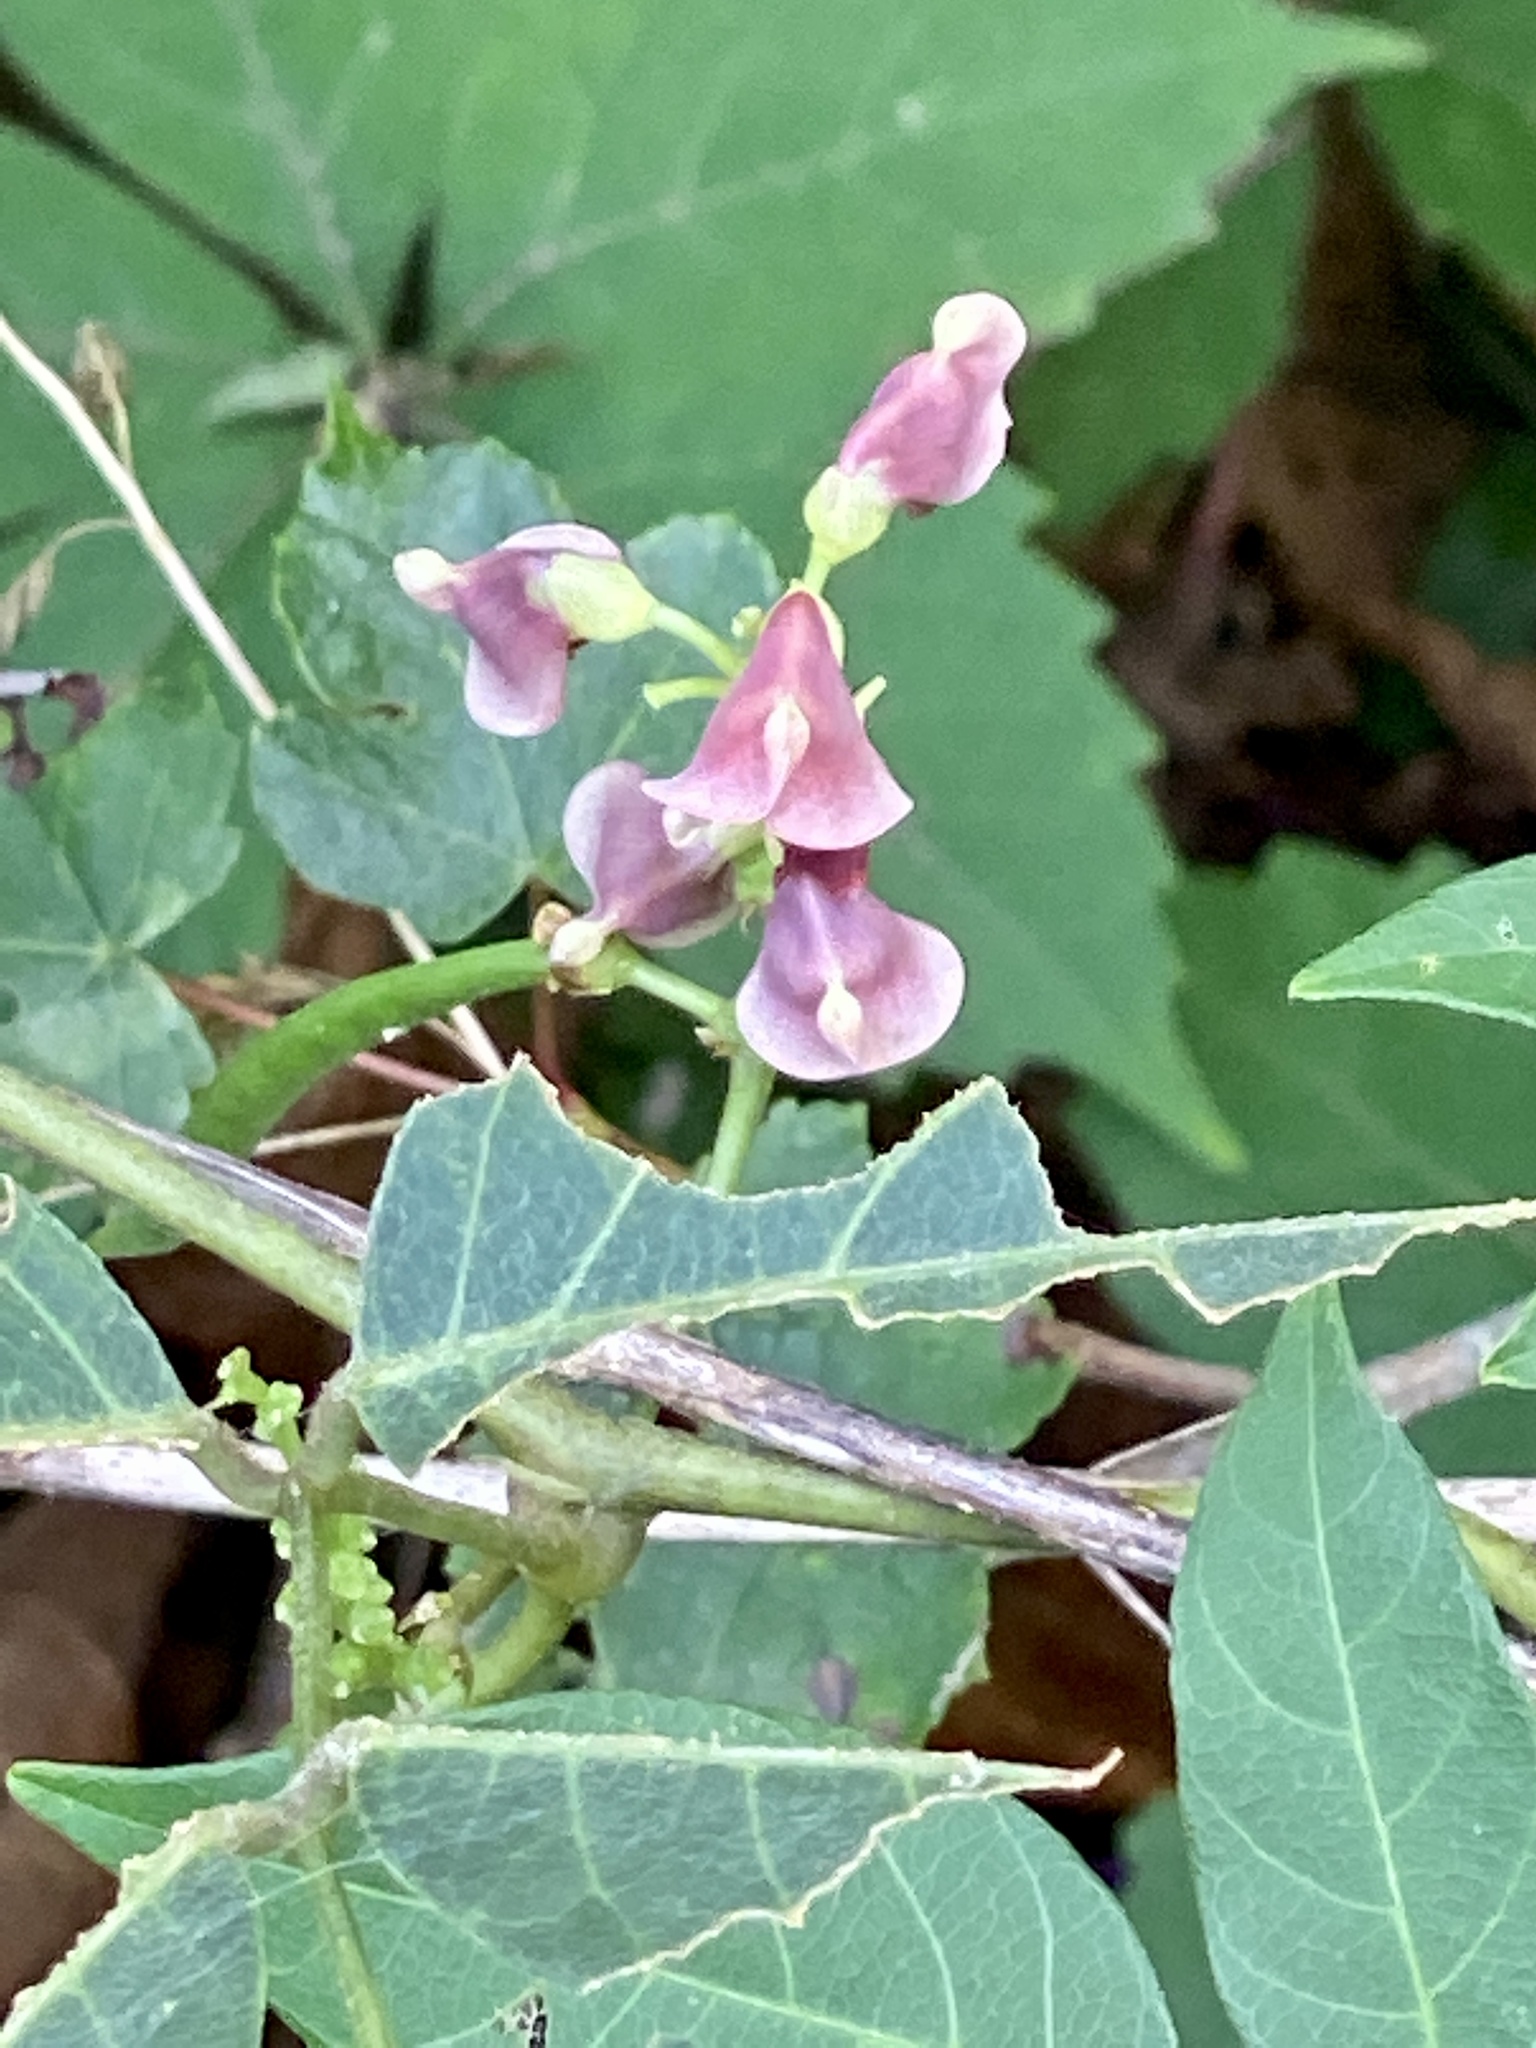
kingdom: Plantae
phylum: Tracheophyta
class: Magnoliopsida
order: Fabales
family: Fabaceae
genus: Apios
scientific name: Apios americana
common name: American potato-bean
